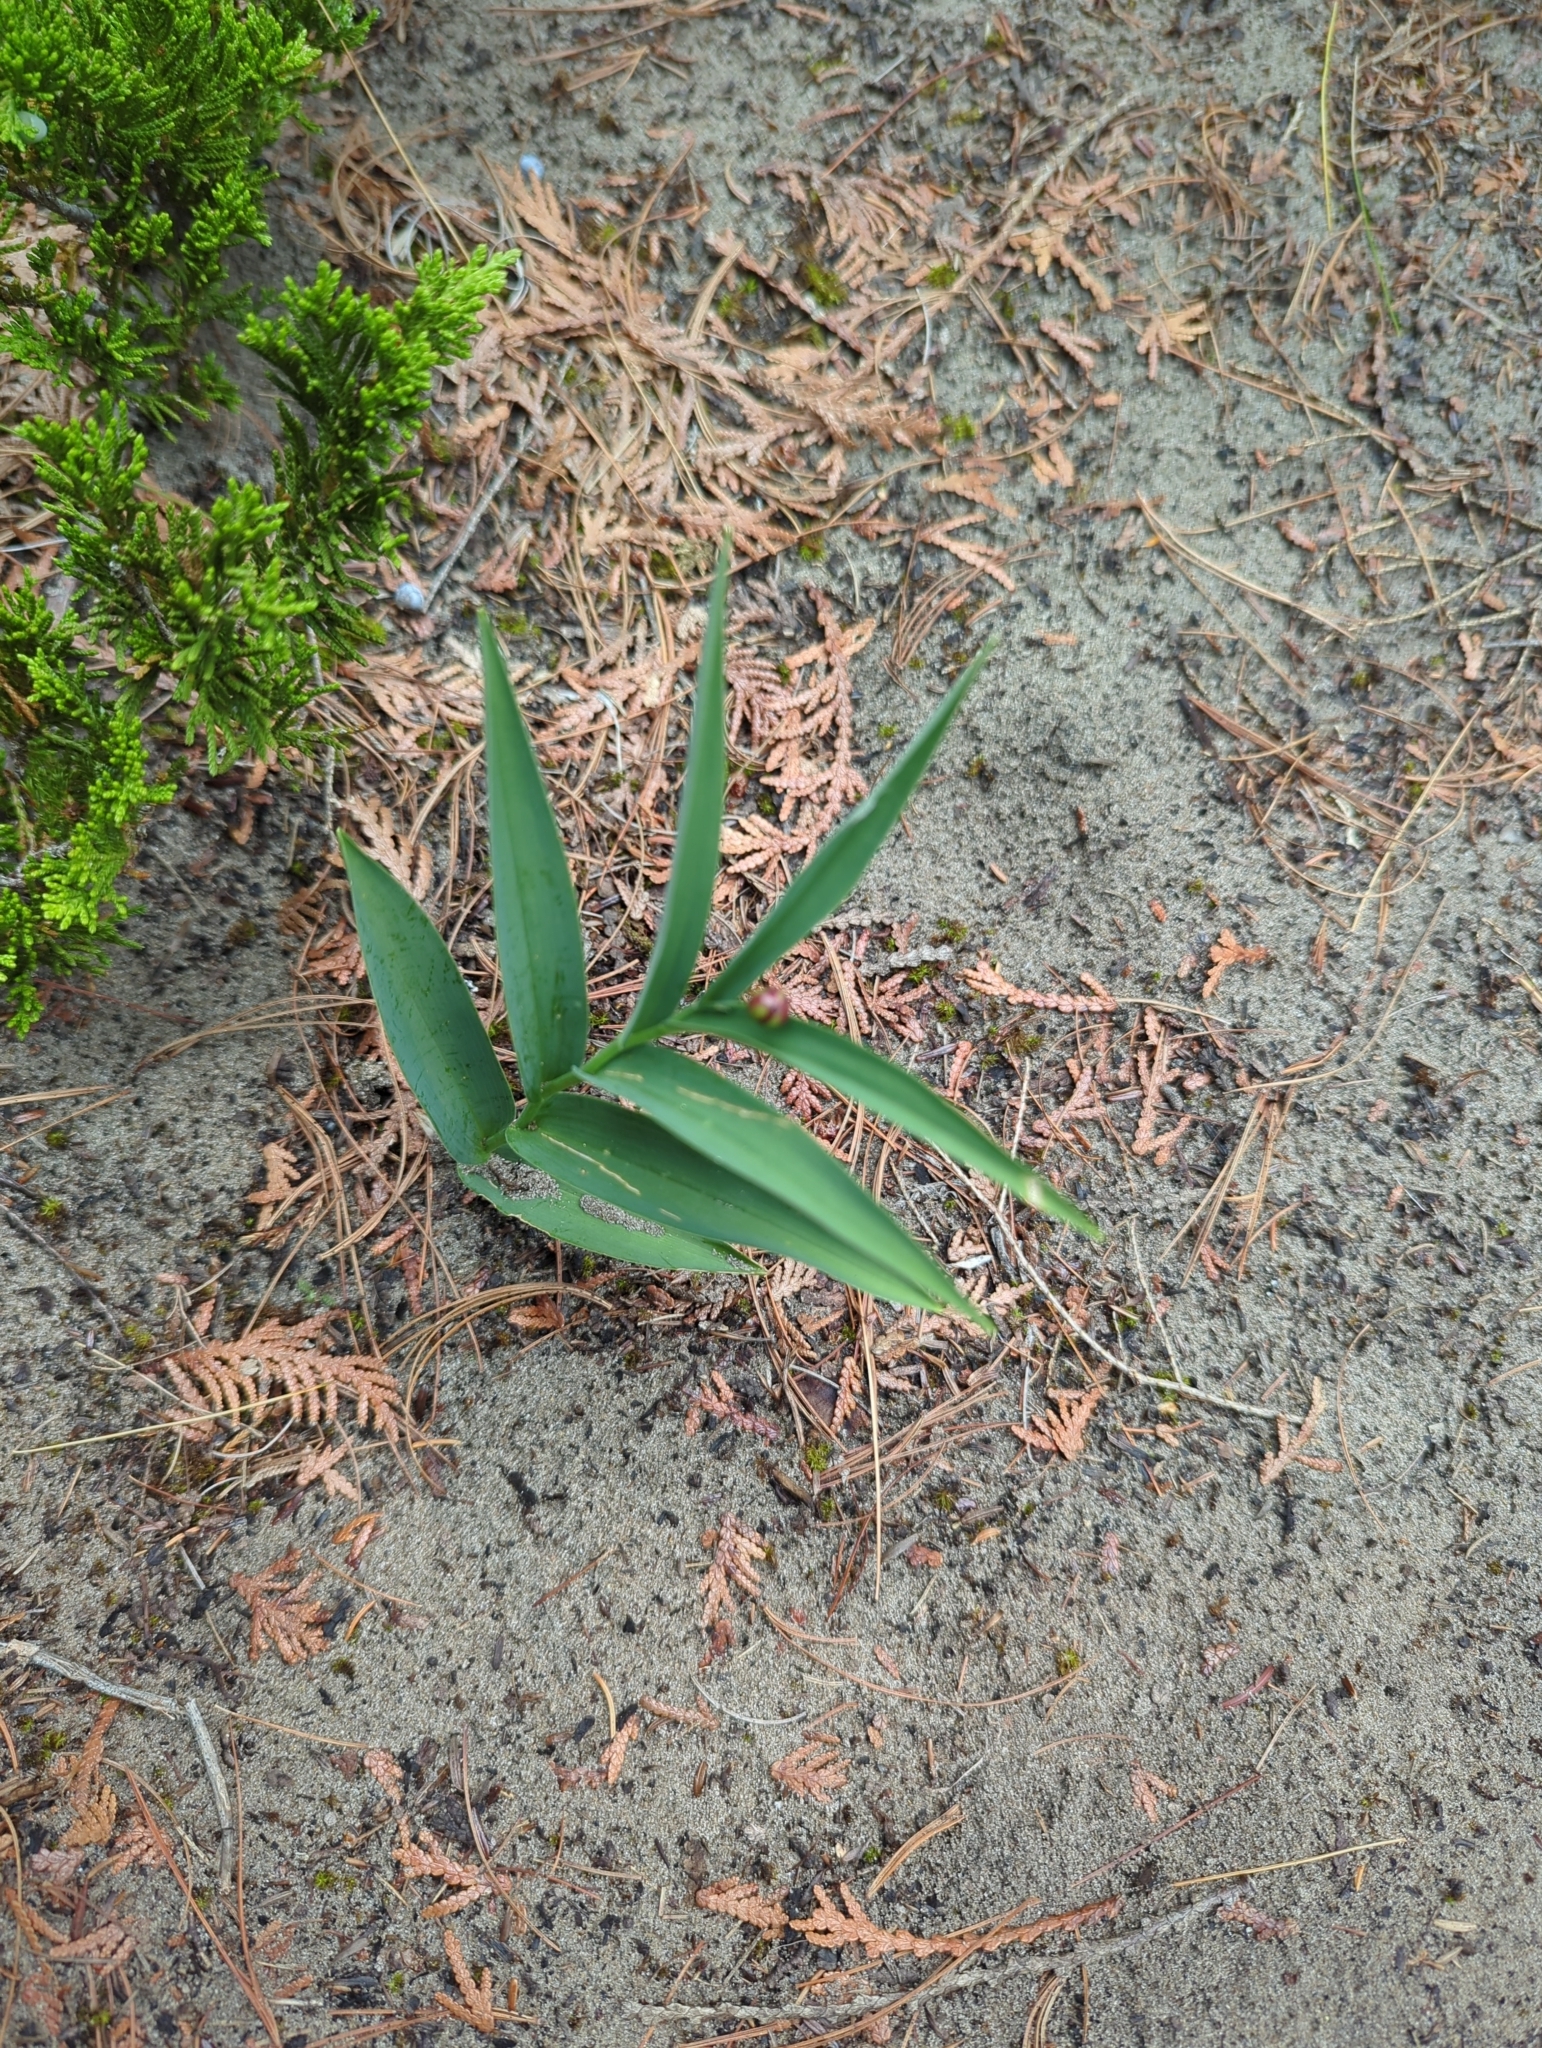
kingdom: Plantae
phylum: Tracheophyta
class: Liliopsida
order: Asparagales
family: Asparagaceae
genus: Maianthemum
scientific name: Maianthemum stellatum
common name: Little false solomon's seal
